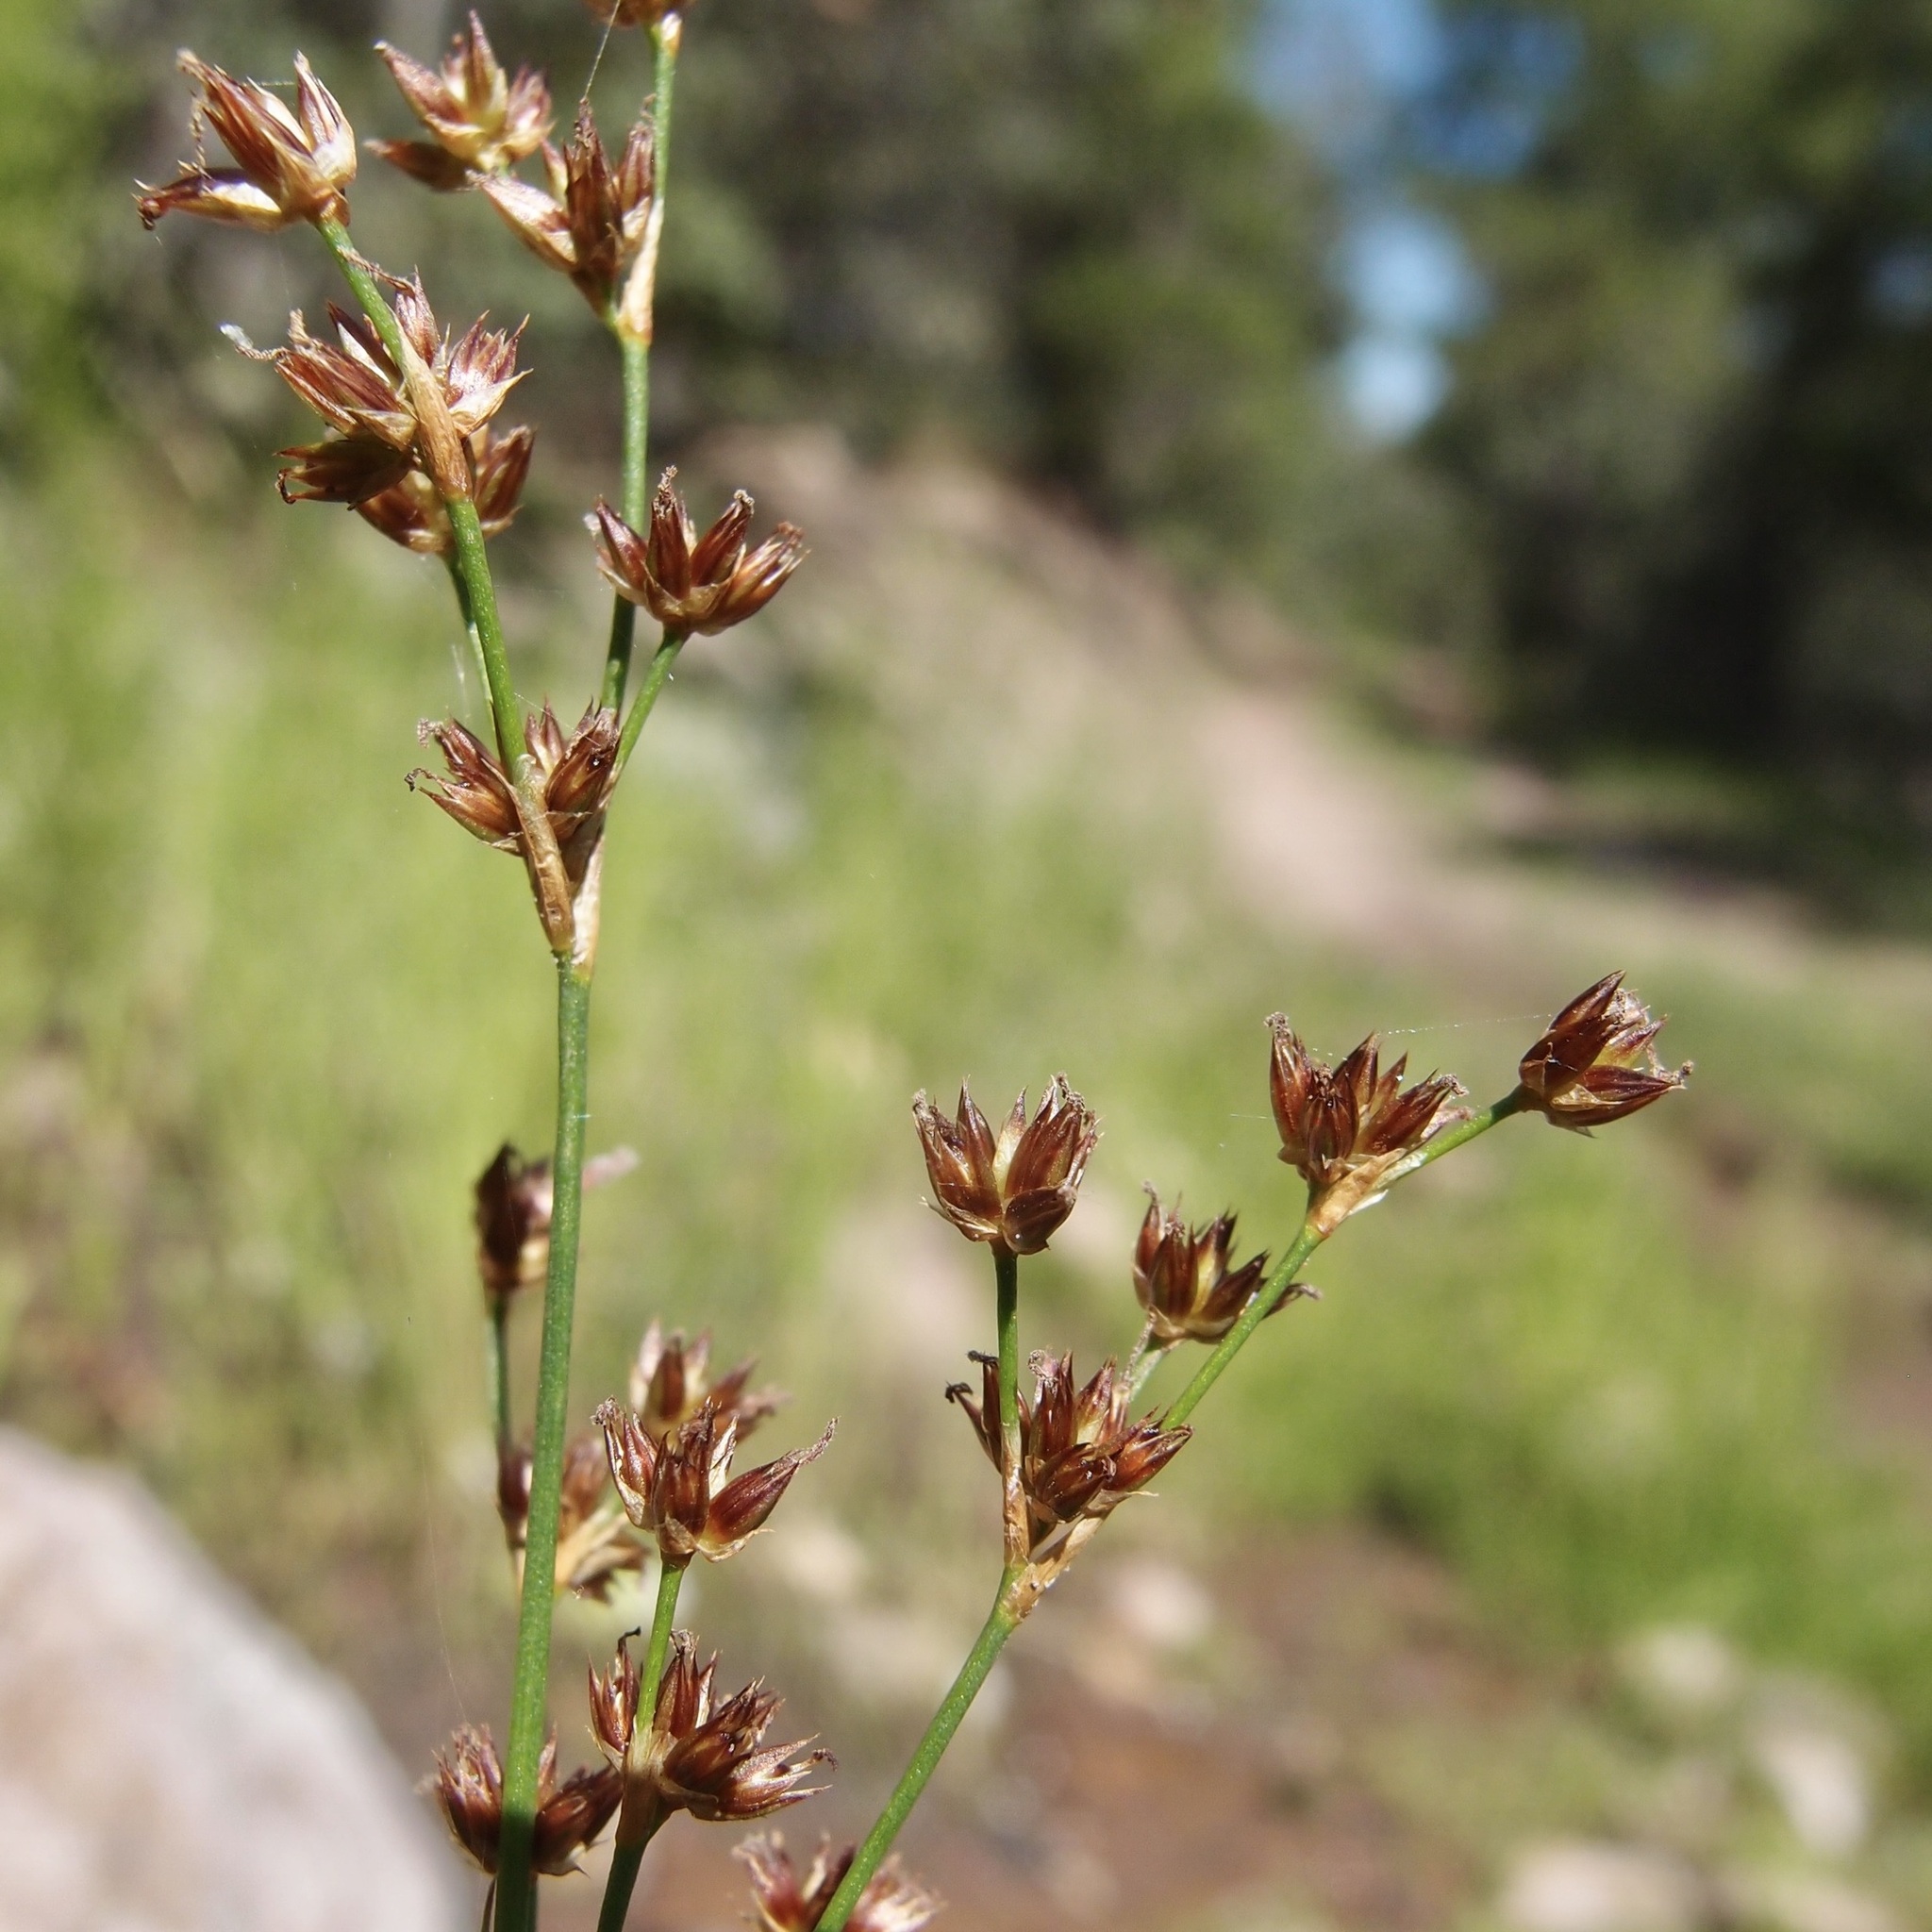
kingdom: Plantae
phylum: Tracheophyta
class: Liliopsida
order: Poales
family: Juncaceae
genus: Juncus
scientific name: Juncus saximontanus
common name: Rocky mountain rush
